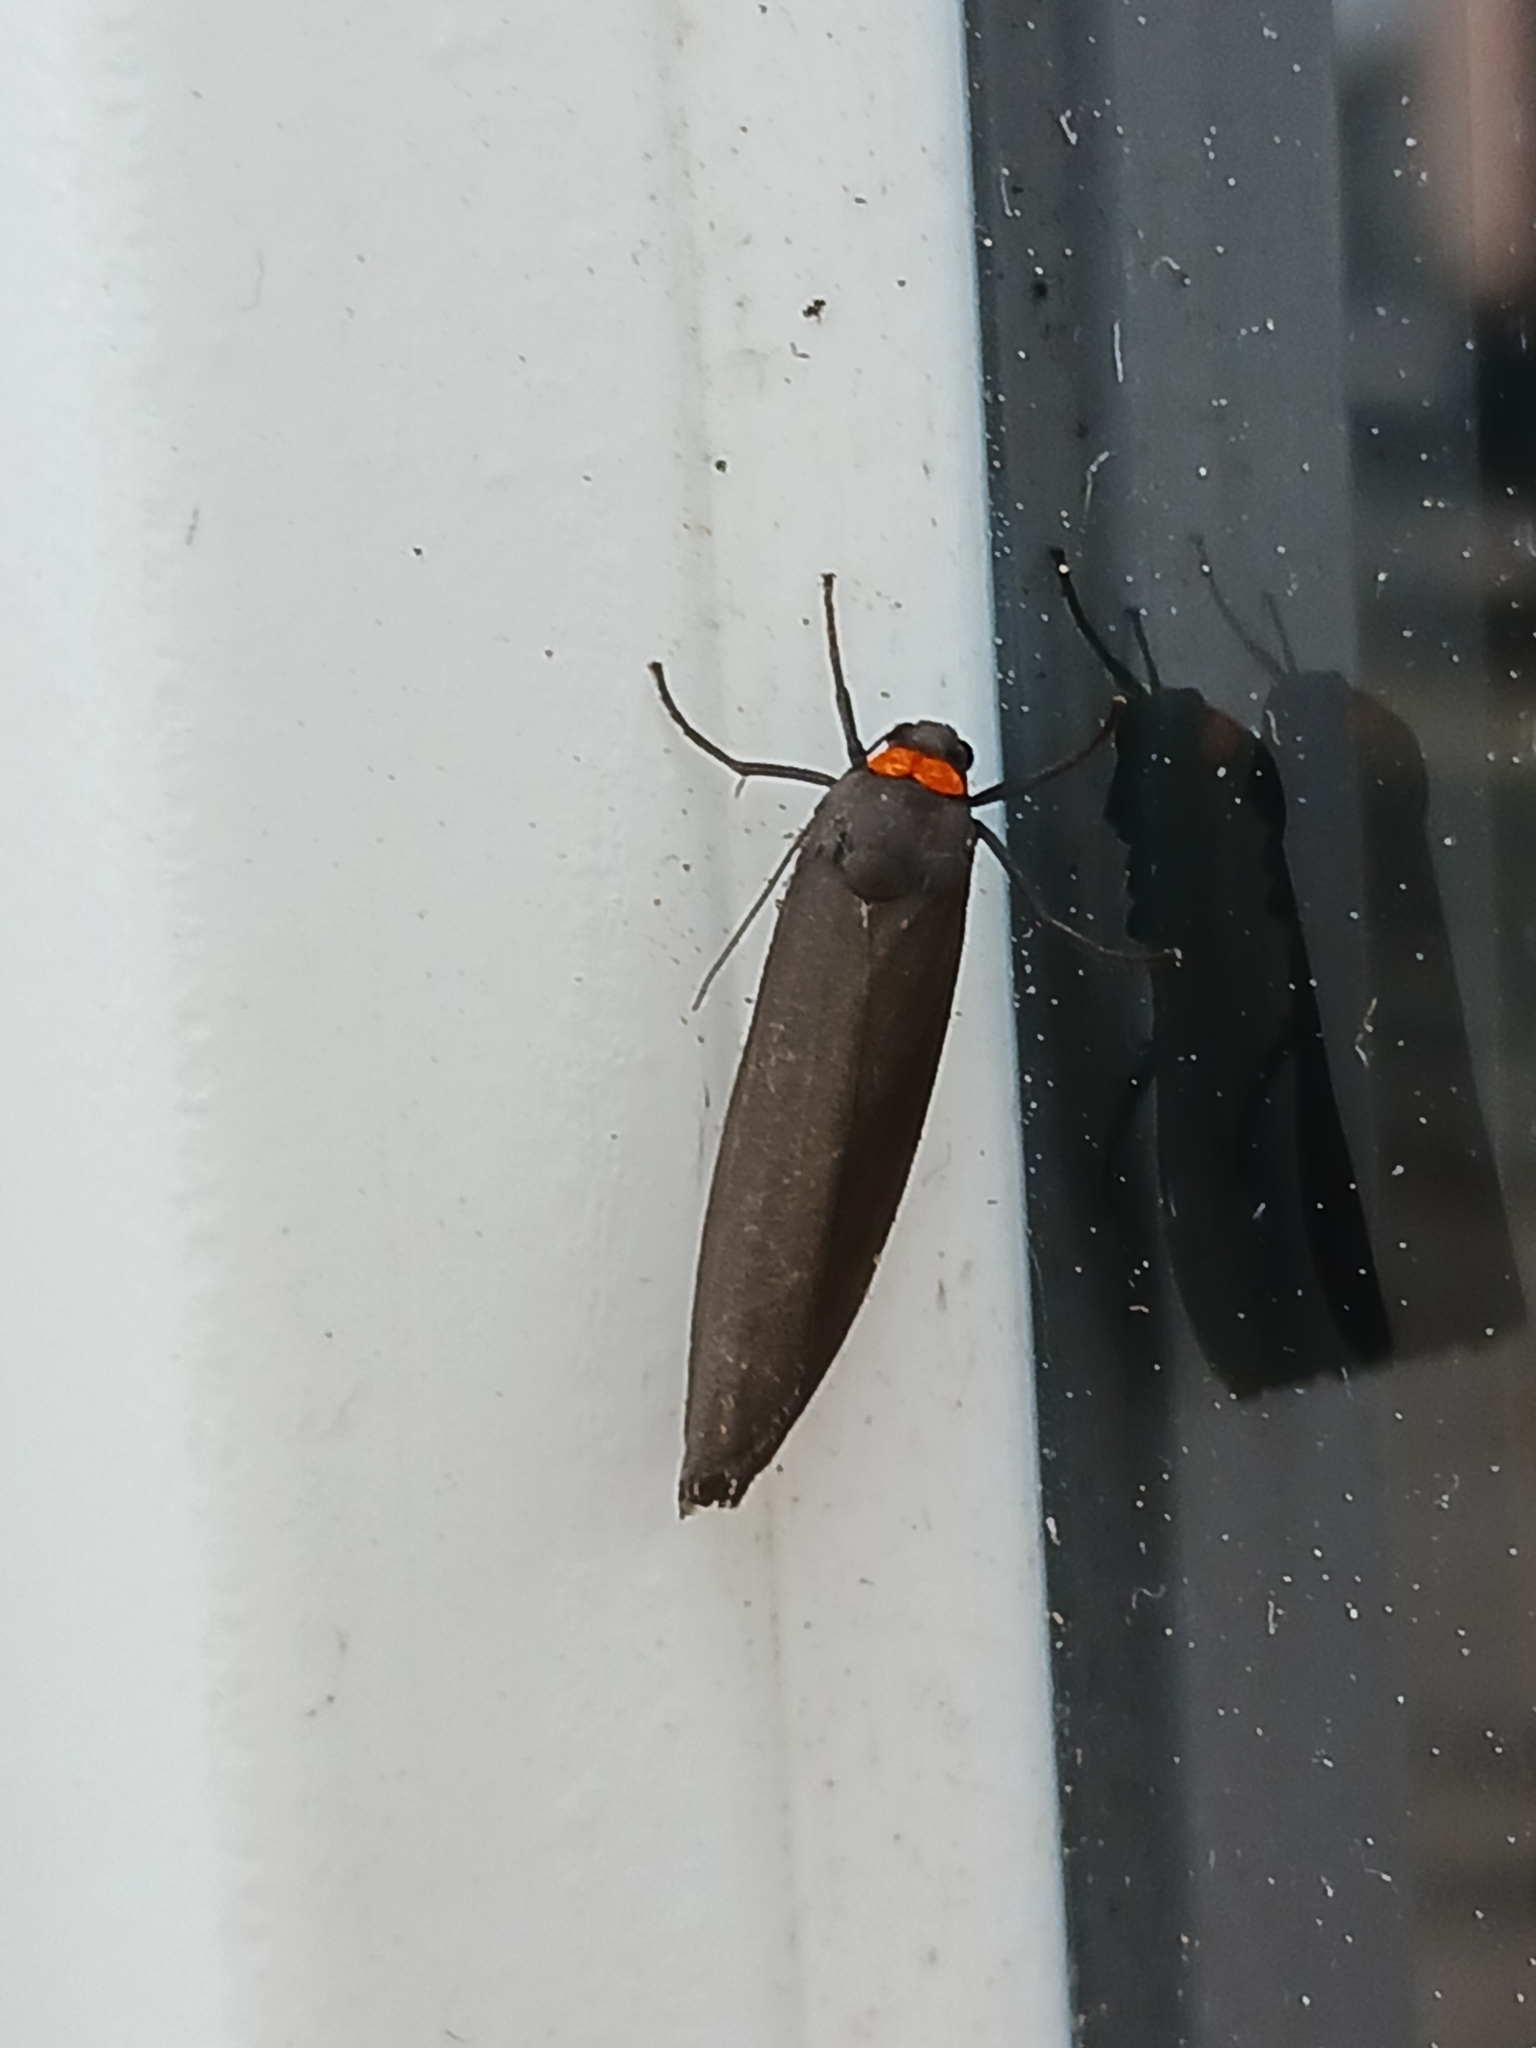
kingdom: Animalia
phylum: Arthropoda
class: Insecta
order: Lepidoptera
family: Erebidae
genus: Atolmis
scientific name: Atolmis rubricollis
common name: Red-necked footman
